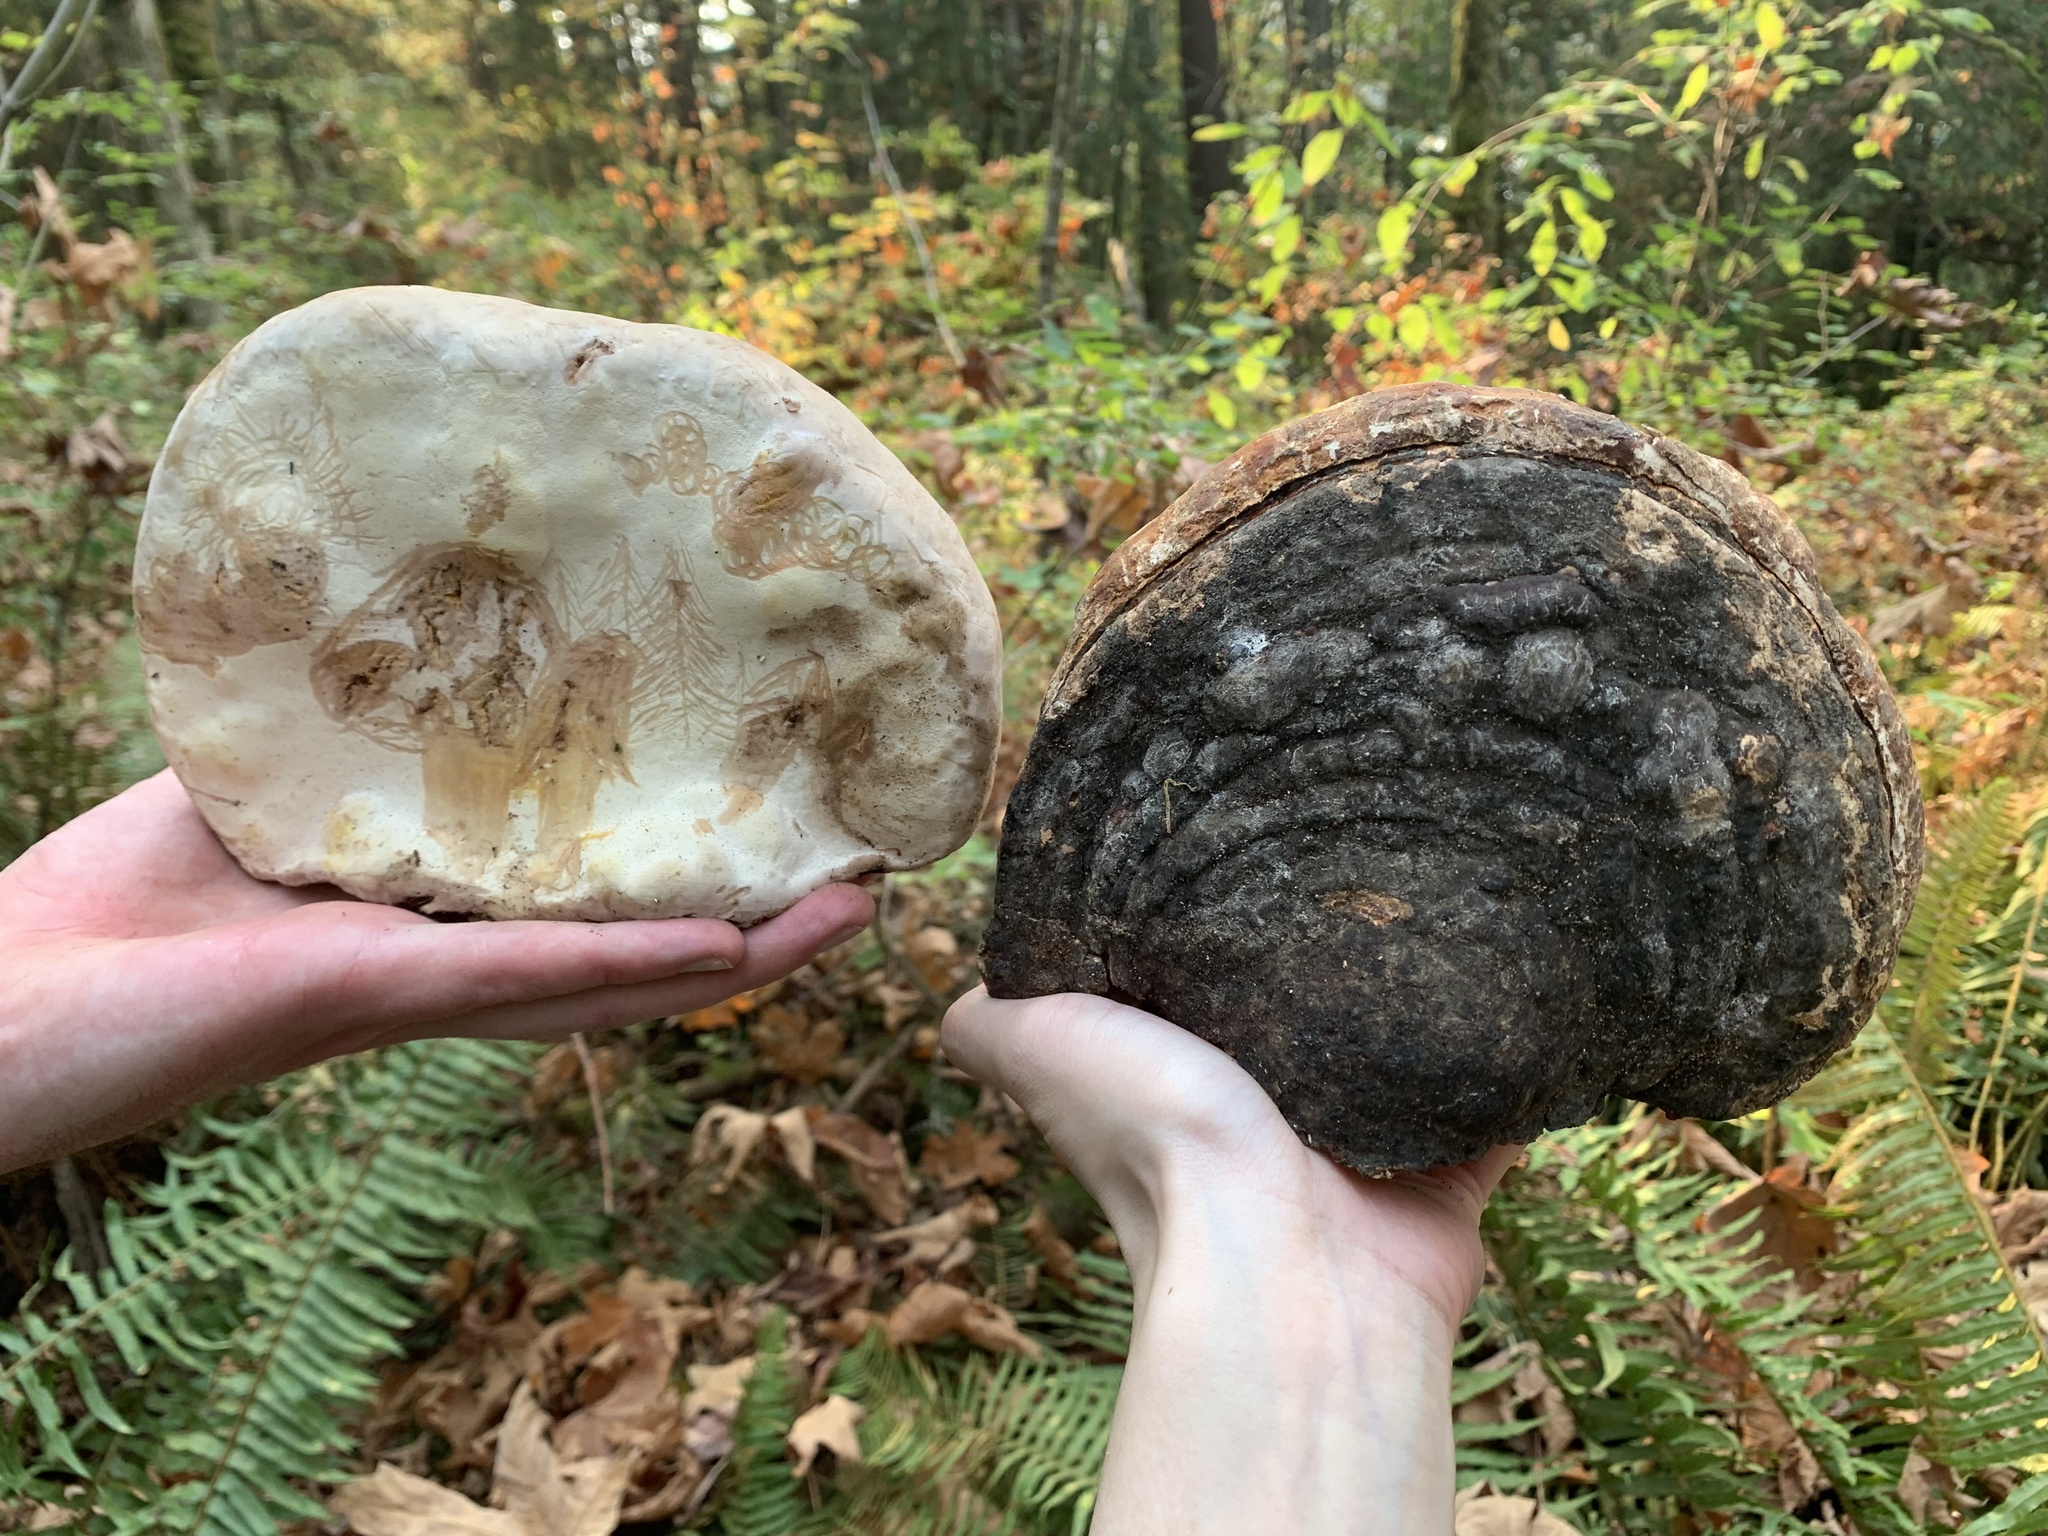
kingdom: Fungi
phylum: Basidiomycota
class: Agaricomycetes
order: Polyporales
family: Fomitopsidaceae
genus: Fomitopsis
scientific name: Fomitopsis mounceae
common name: Northern red belt
